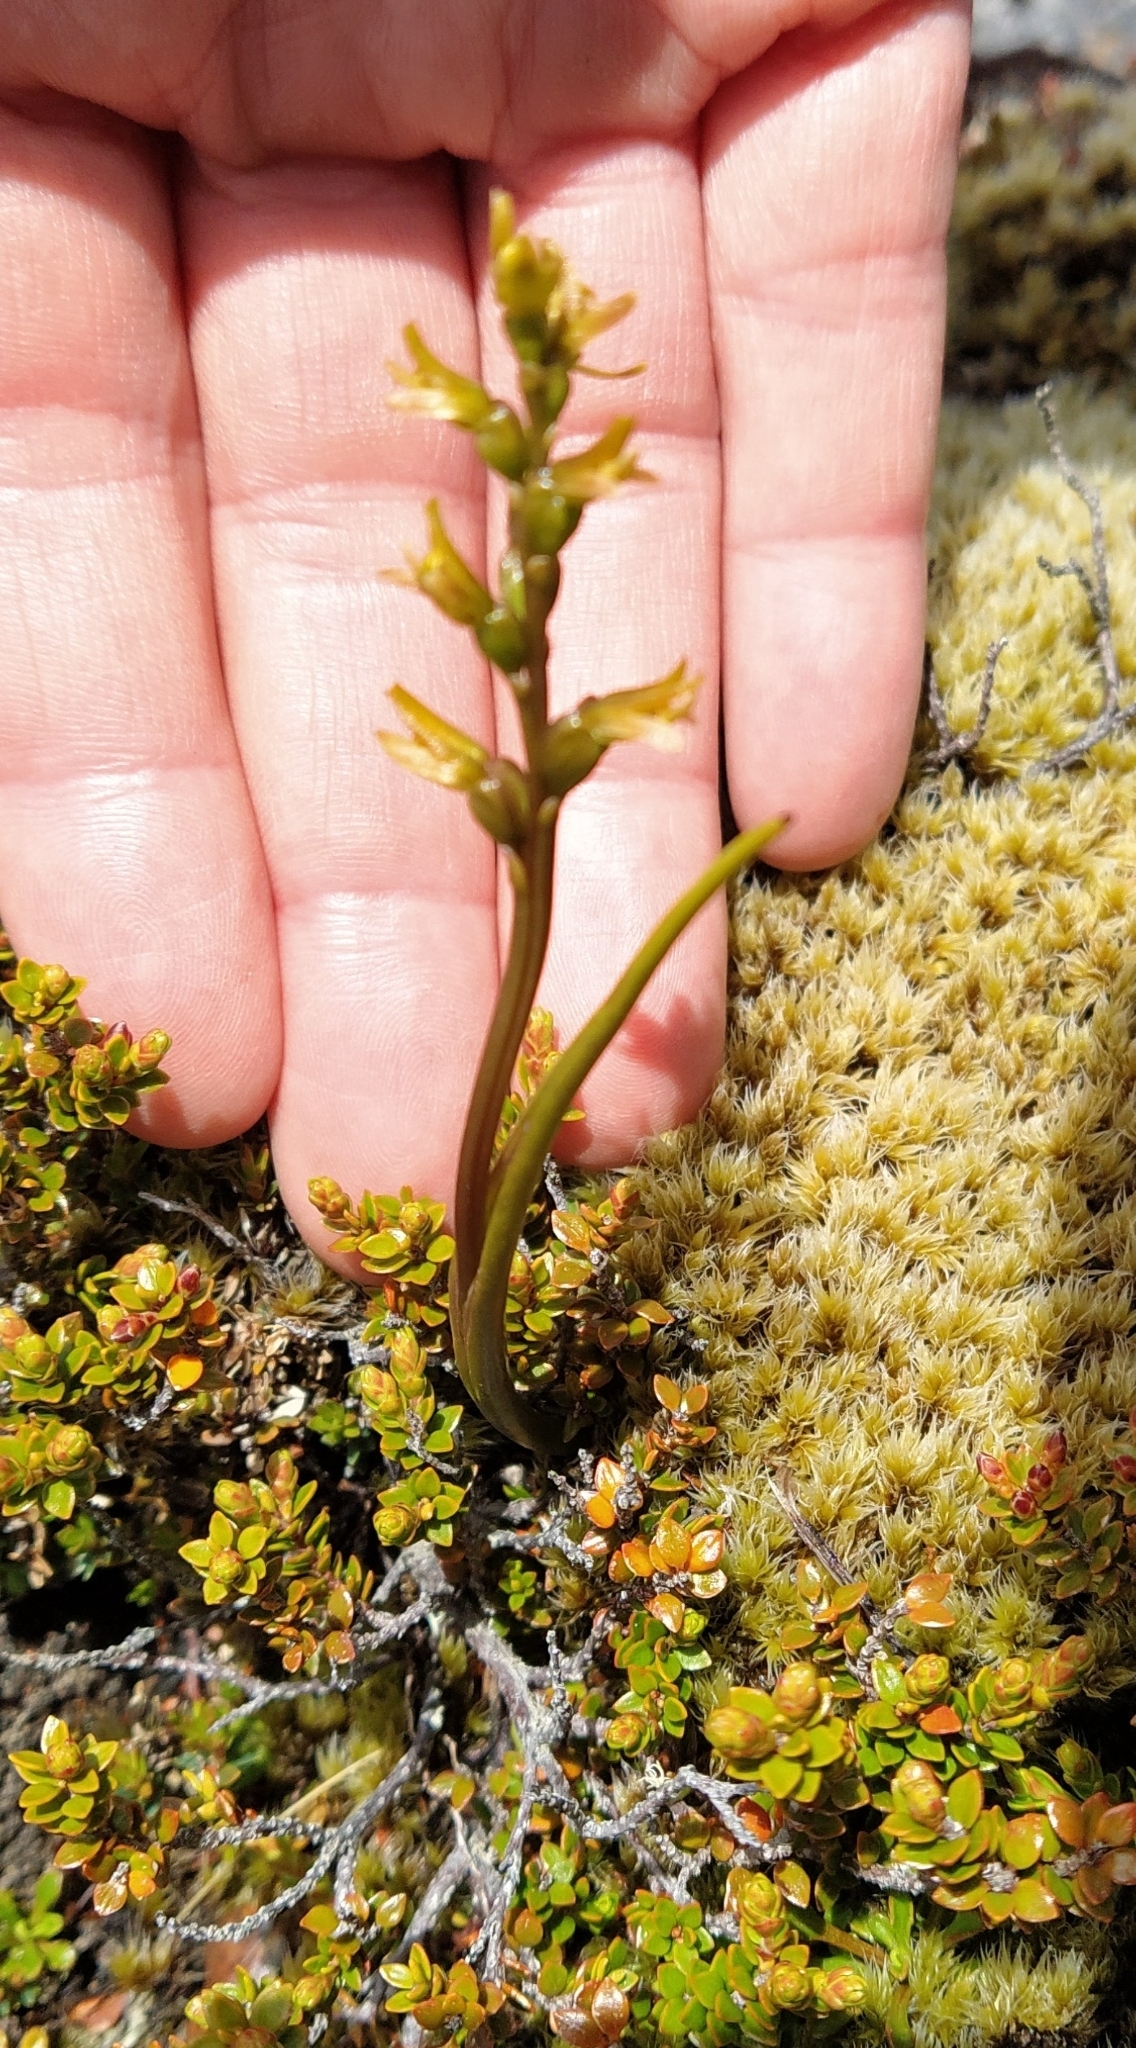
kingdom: Plantae
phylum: Tracheophyta
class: Liliopsida
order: Asparagales
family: Orchidaceae
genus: Prasophyllum
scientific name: Prasophyllum colensoi
